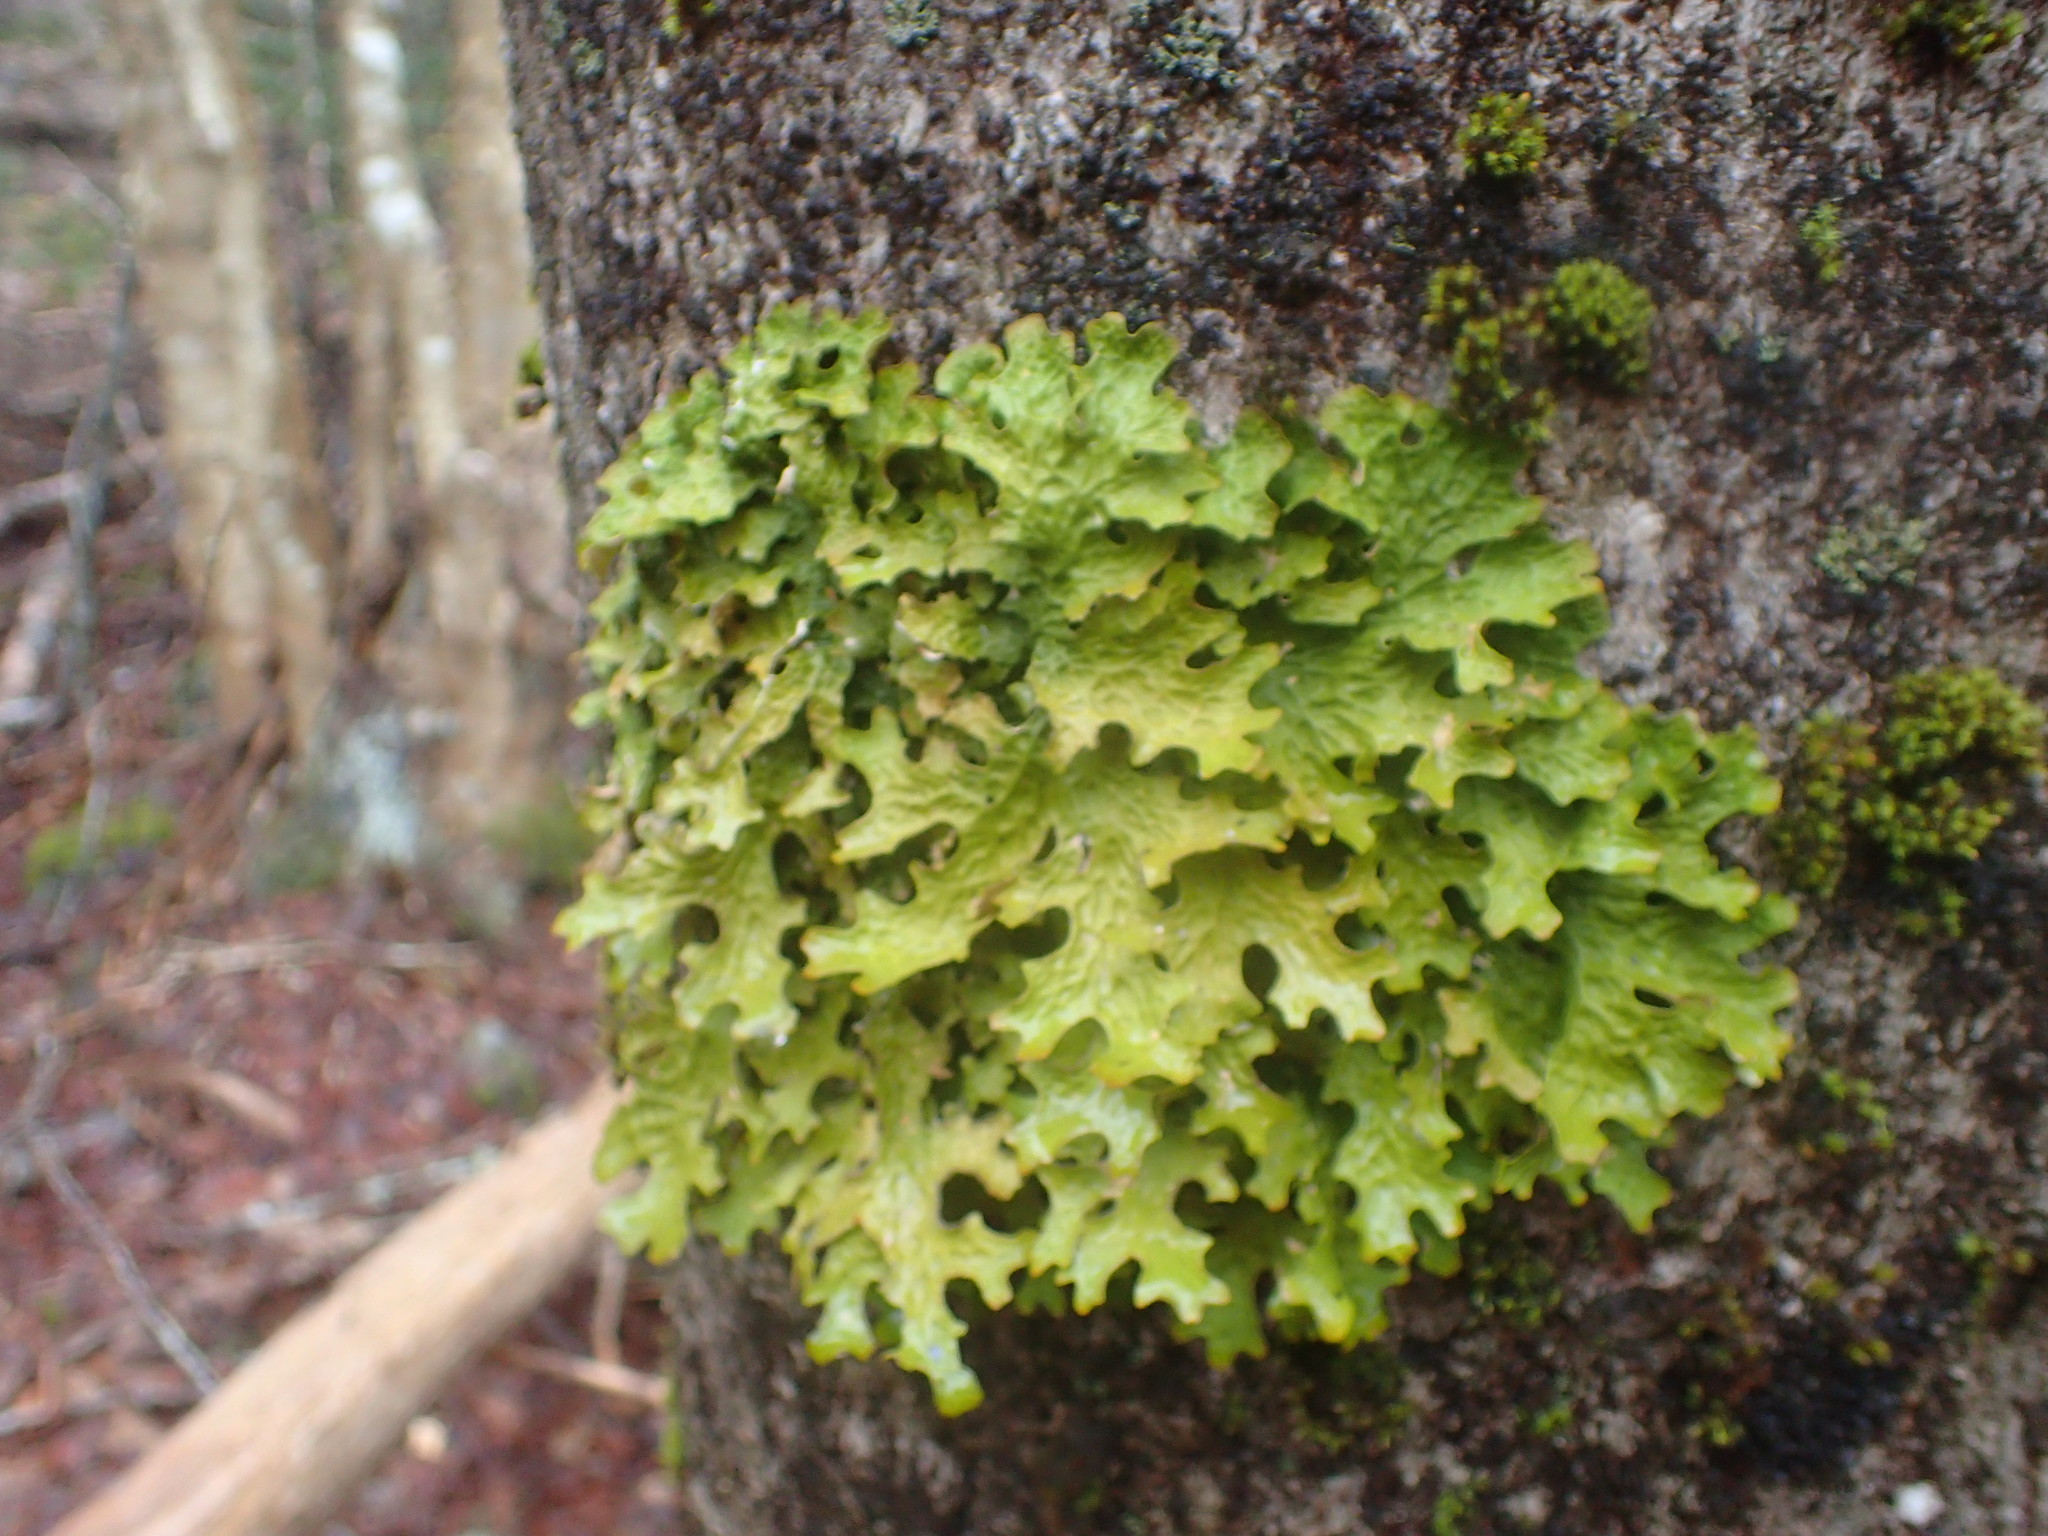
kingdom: Fungi
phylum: Ascomycota
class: Lecanoromycetes
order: Peltigerales
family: Lobariaceae
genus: Lobaria
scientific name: Lobaria pulmonaria
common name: Lungwort
